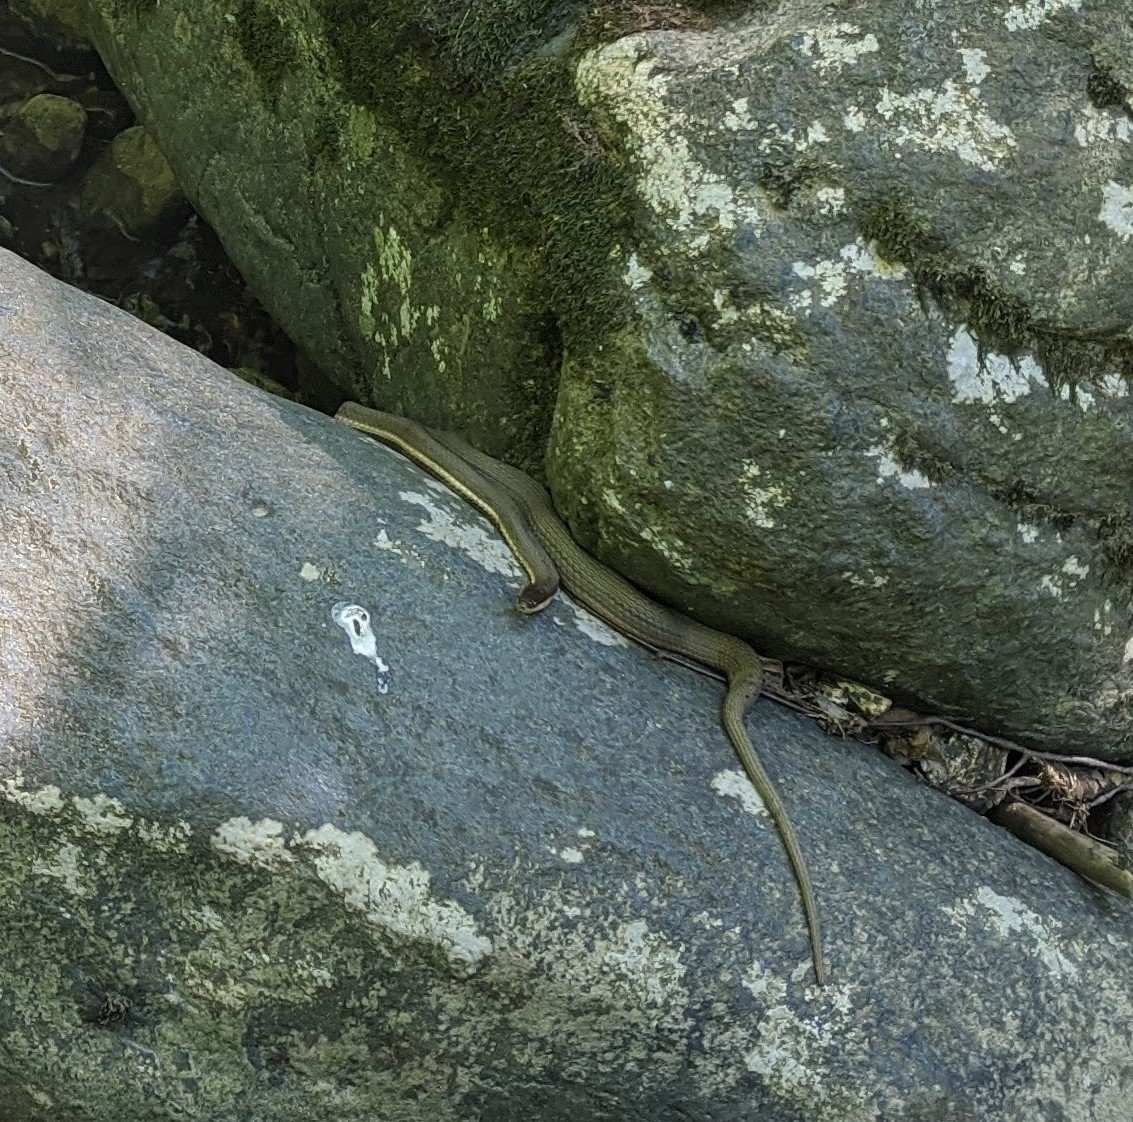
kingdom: Animalia
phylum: Chordata
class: Squamata
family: Colubridae
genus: Regina
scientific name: Regina septemvittata
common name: Queen snake
